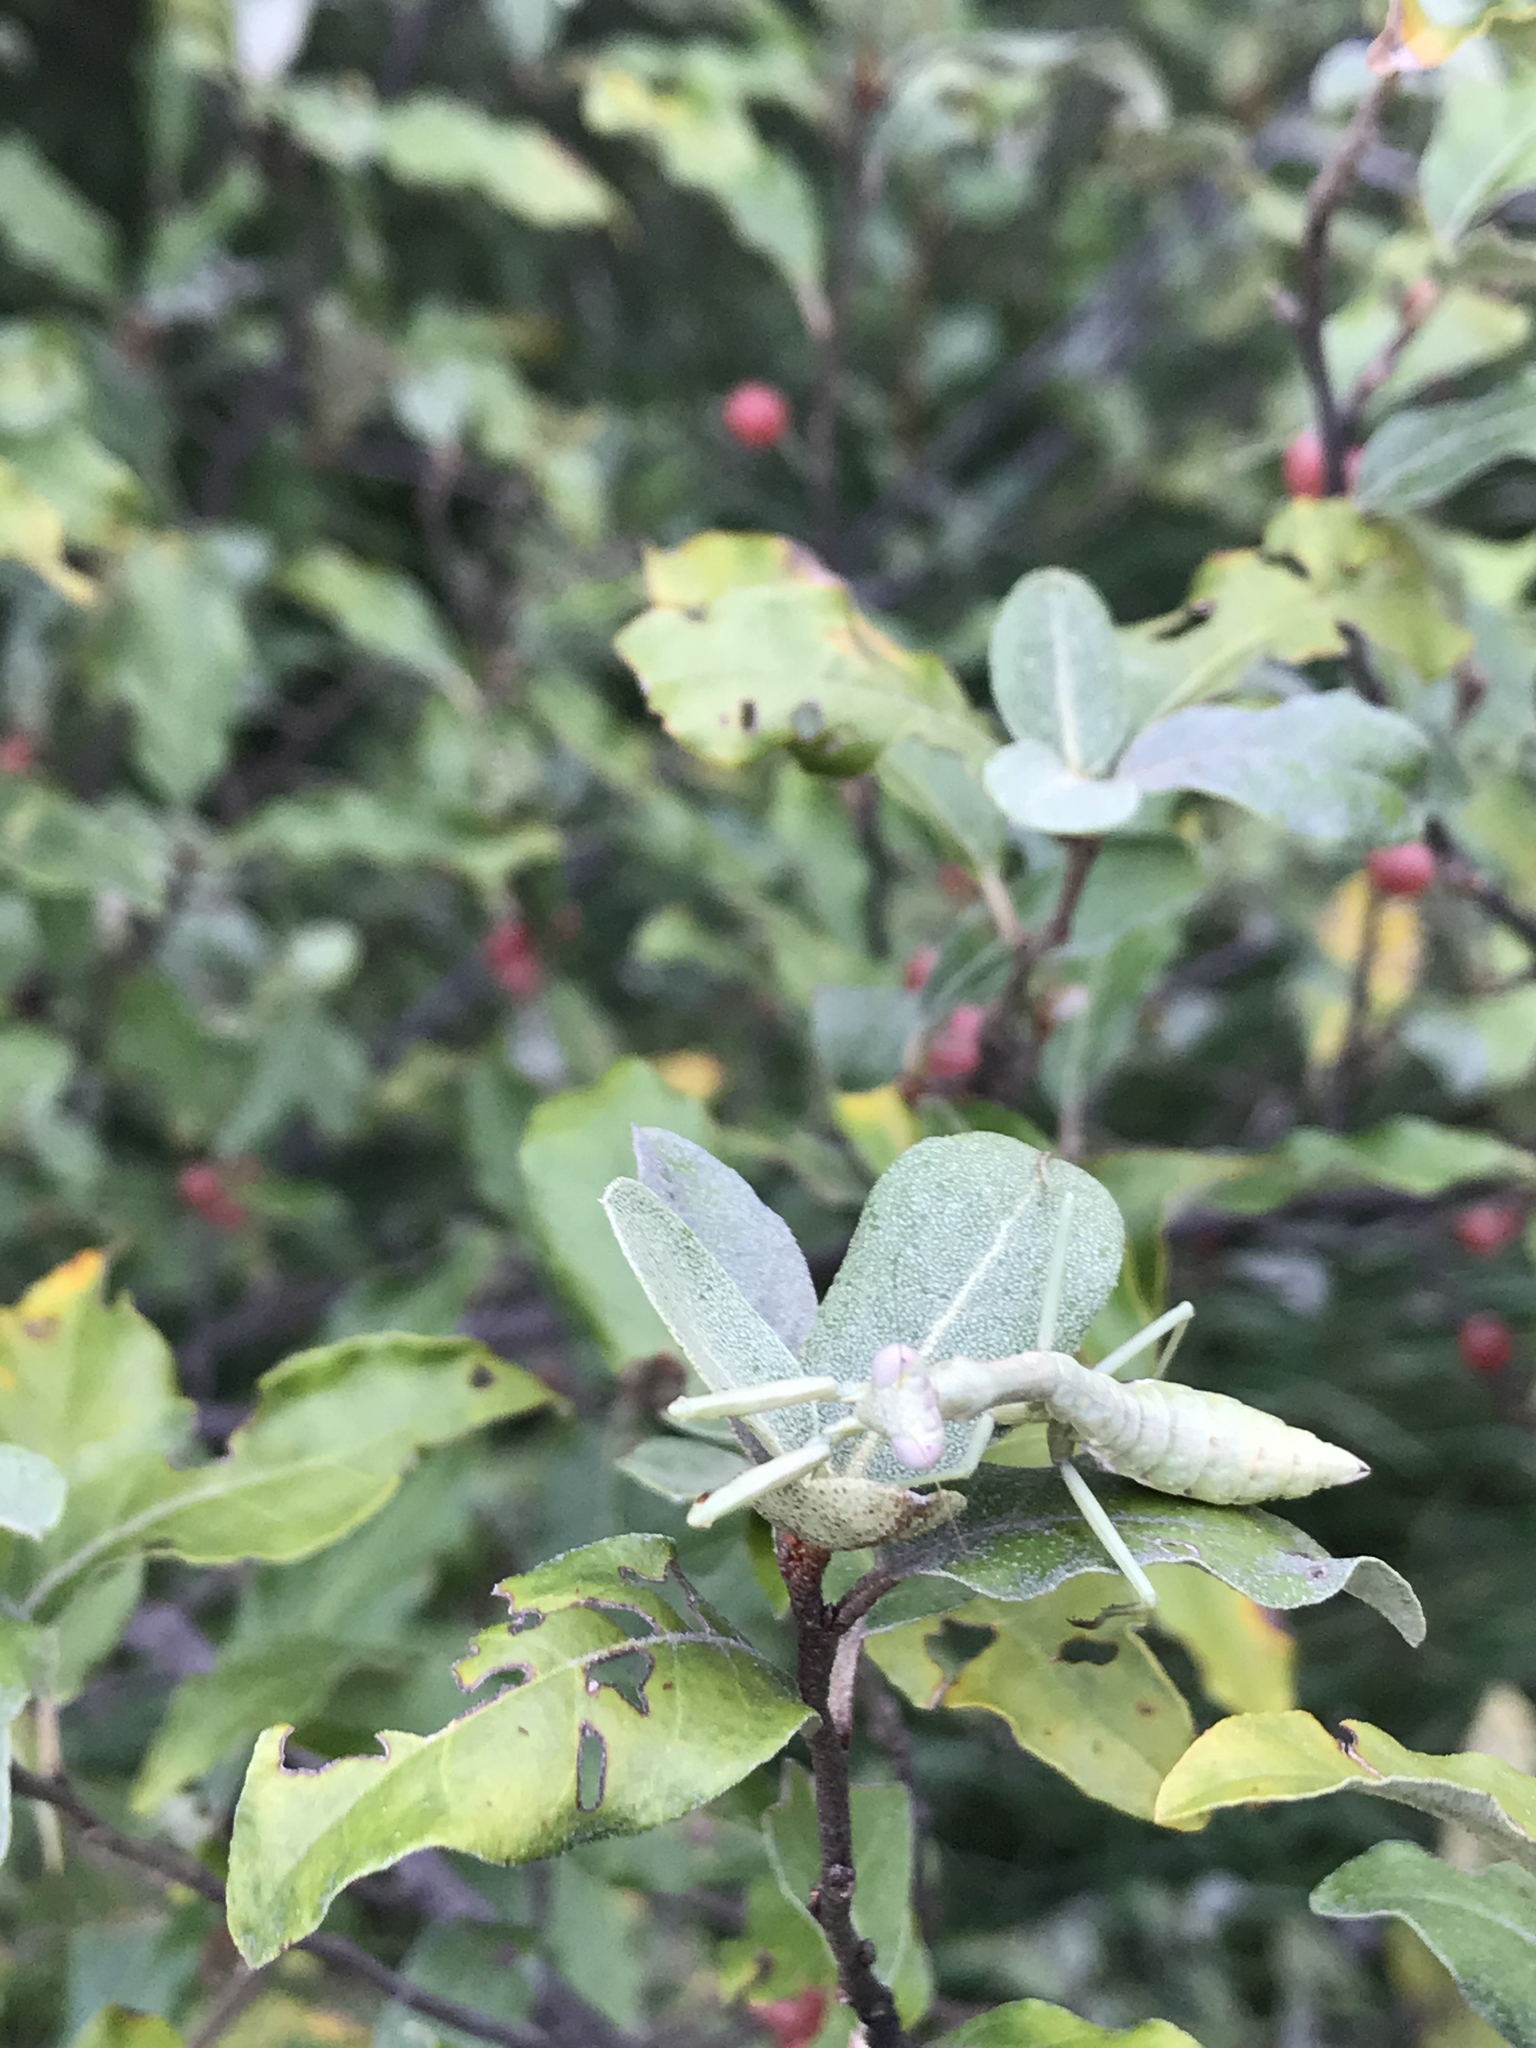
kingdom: Animalia
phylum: Arthropoda
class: Insecta
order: Mantodea
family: Mantidae
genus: Stagmomantis
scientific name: Stagmomantis carolina
